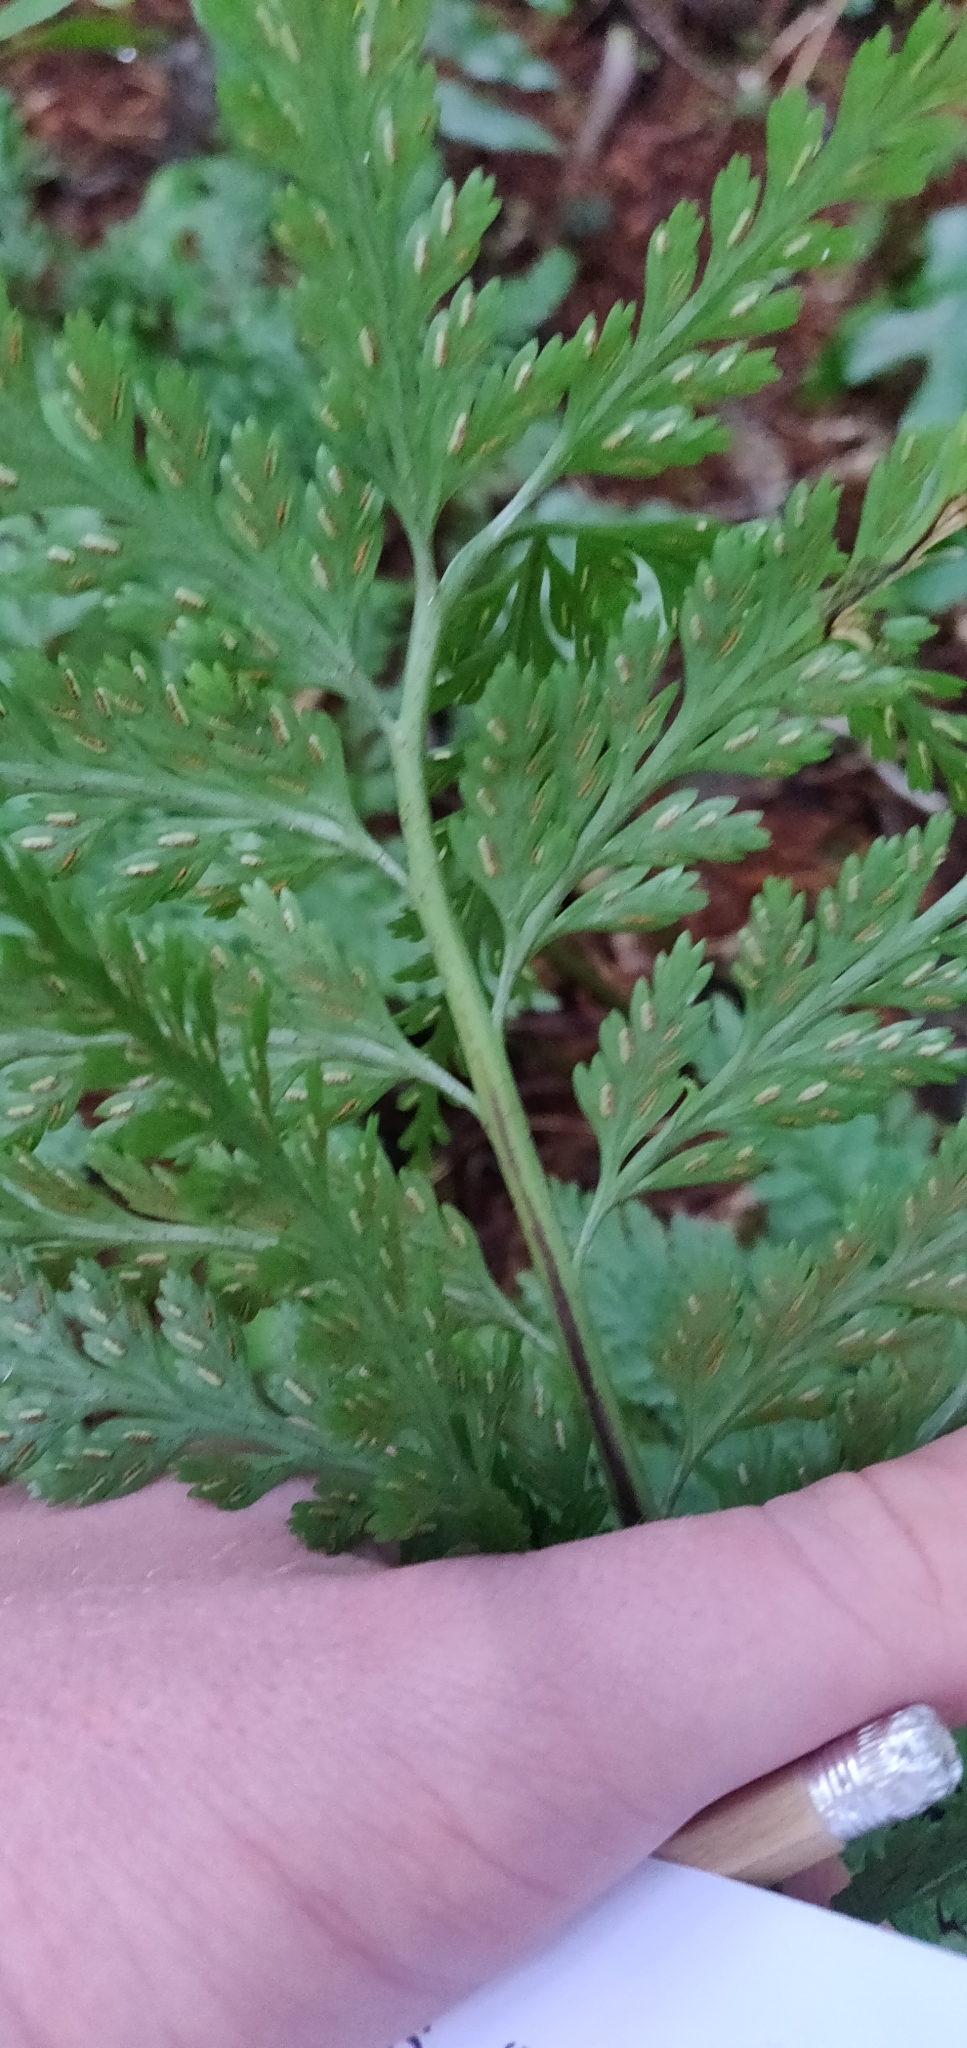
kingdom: Plantae
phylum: Tracheophyta
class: Polypodiopsida
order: Polypodiales
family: Aspleniaceae
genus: Asplenium
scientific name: Asplenium bulbiferum
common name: Mother fern
